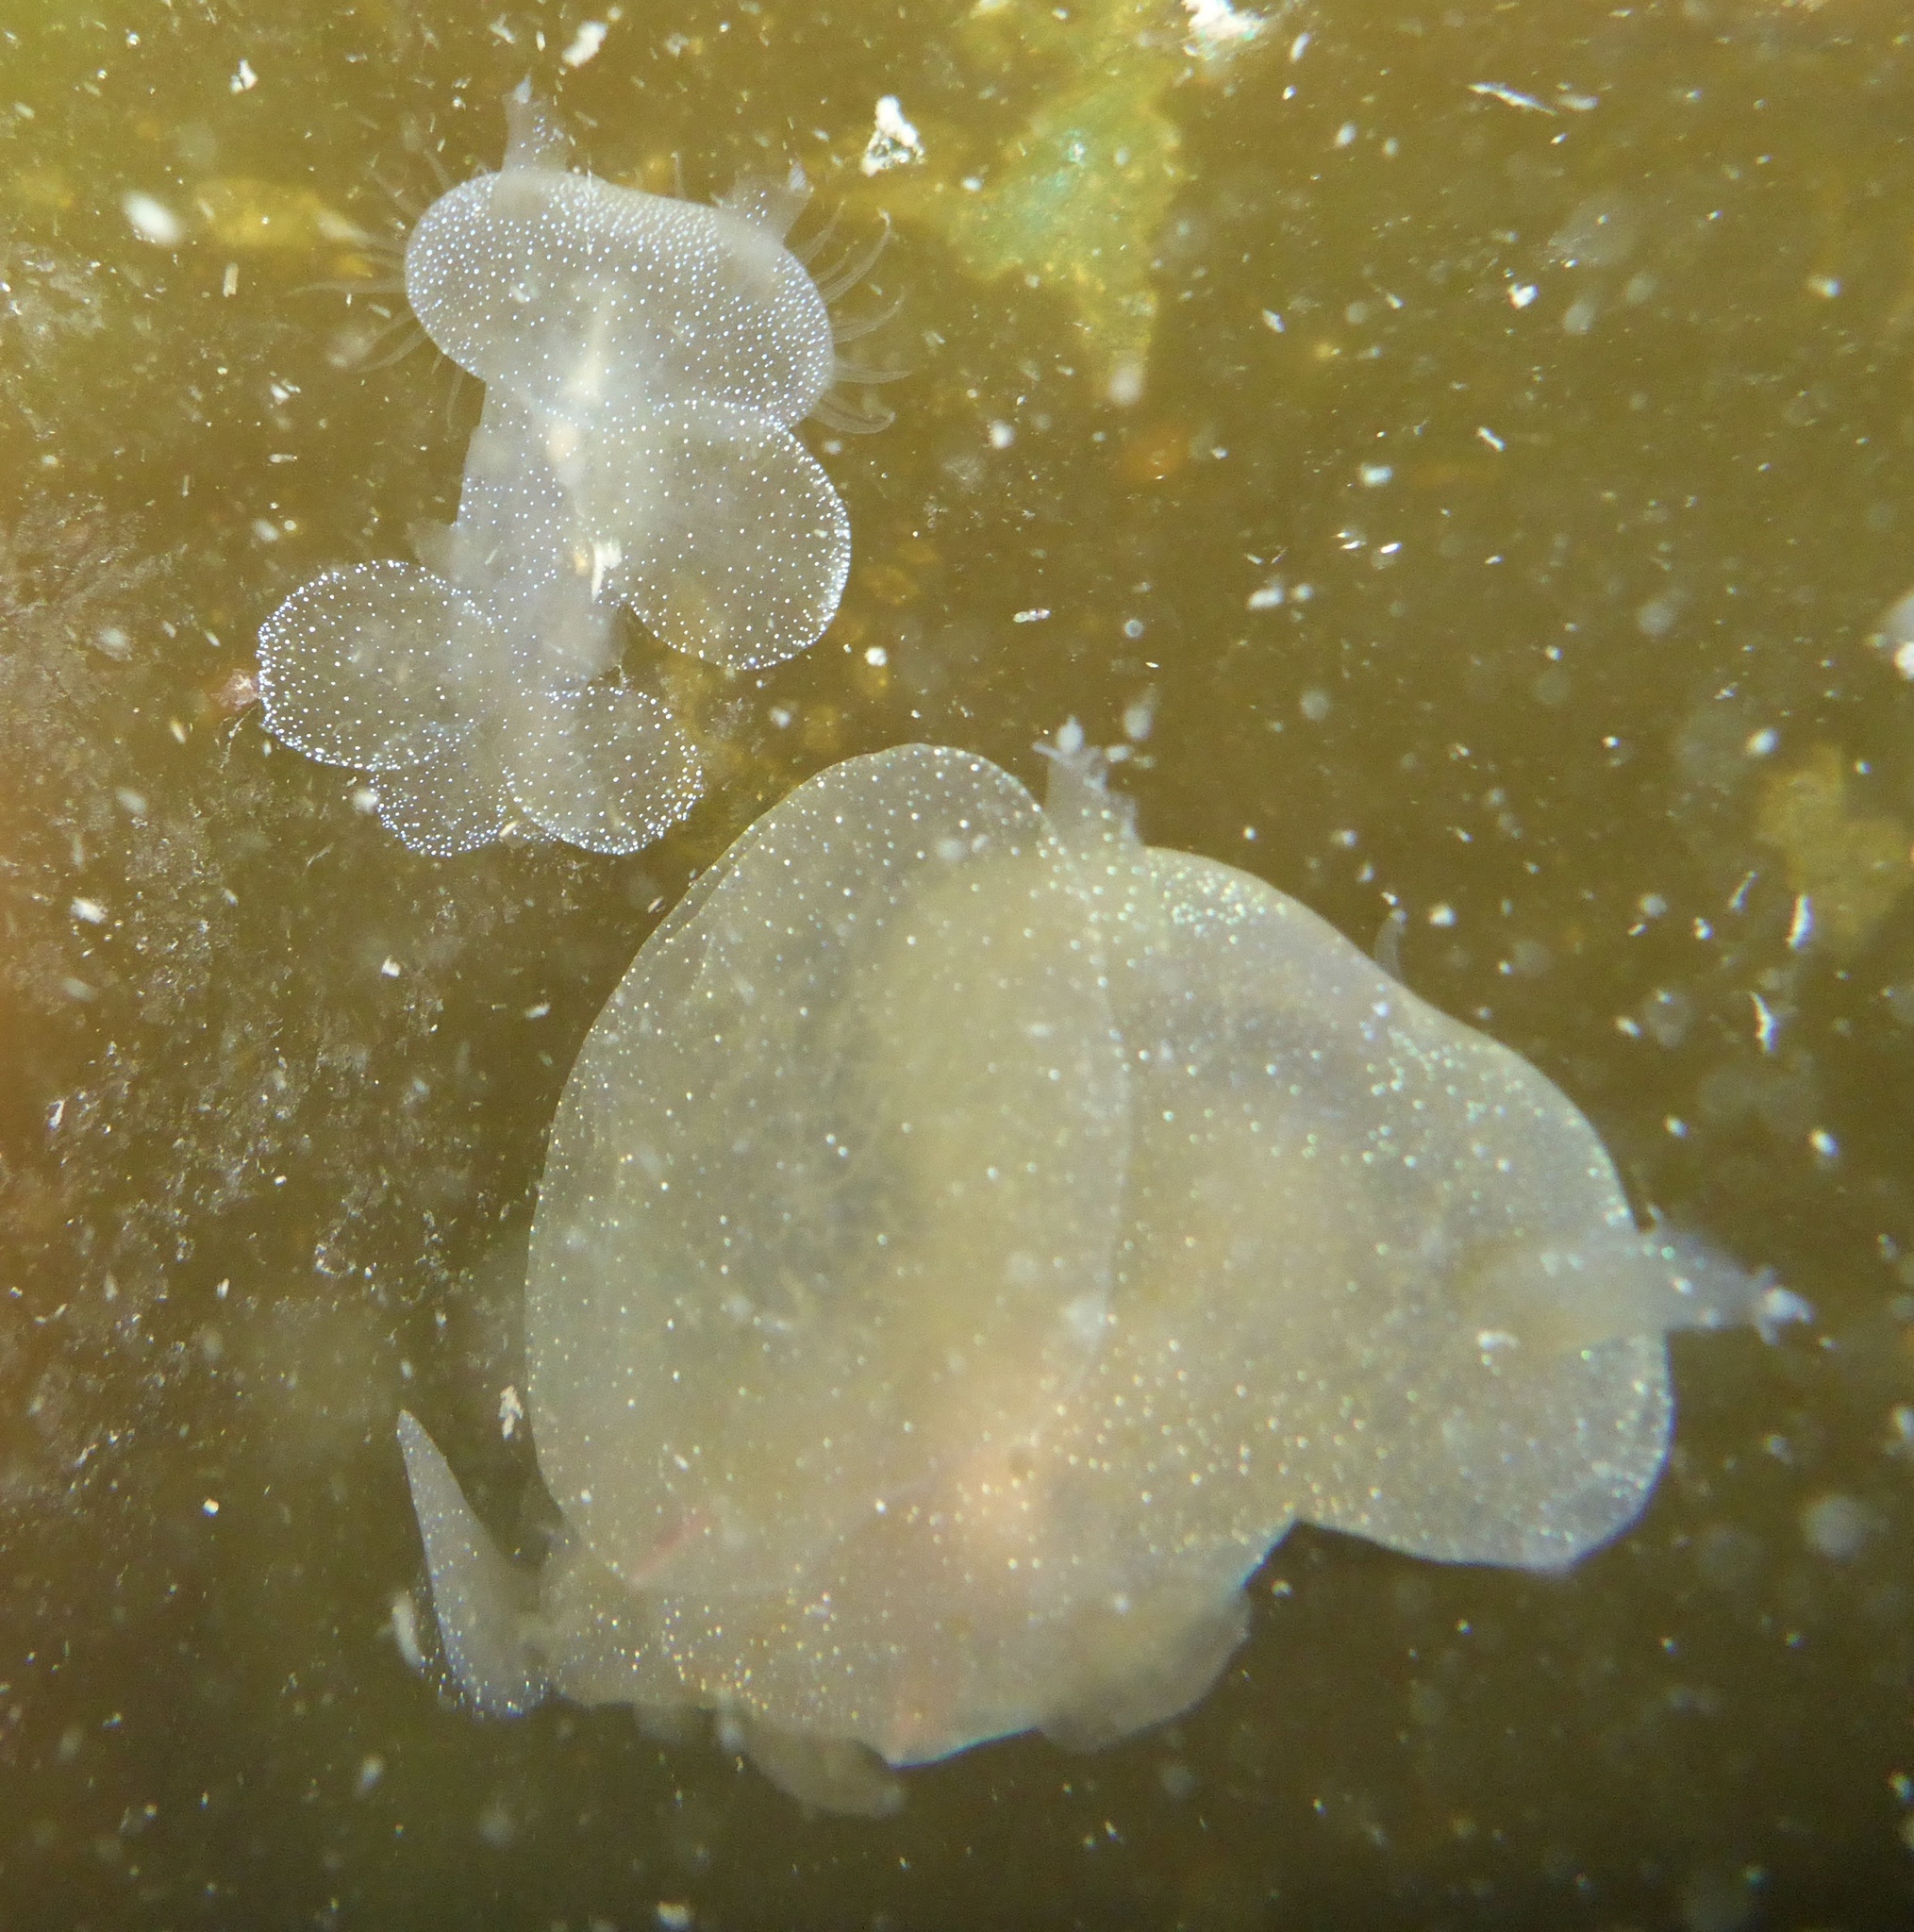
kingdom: Animalia
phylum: Mollusca
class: Gastropoda
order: Nudibranchia
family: Tethydidae
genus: Melibe
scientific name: Melibe leonina
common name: Lion nudibranch
